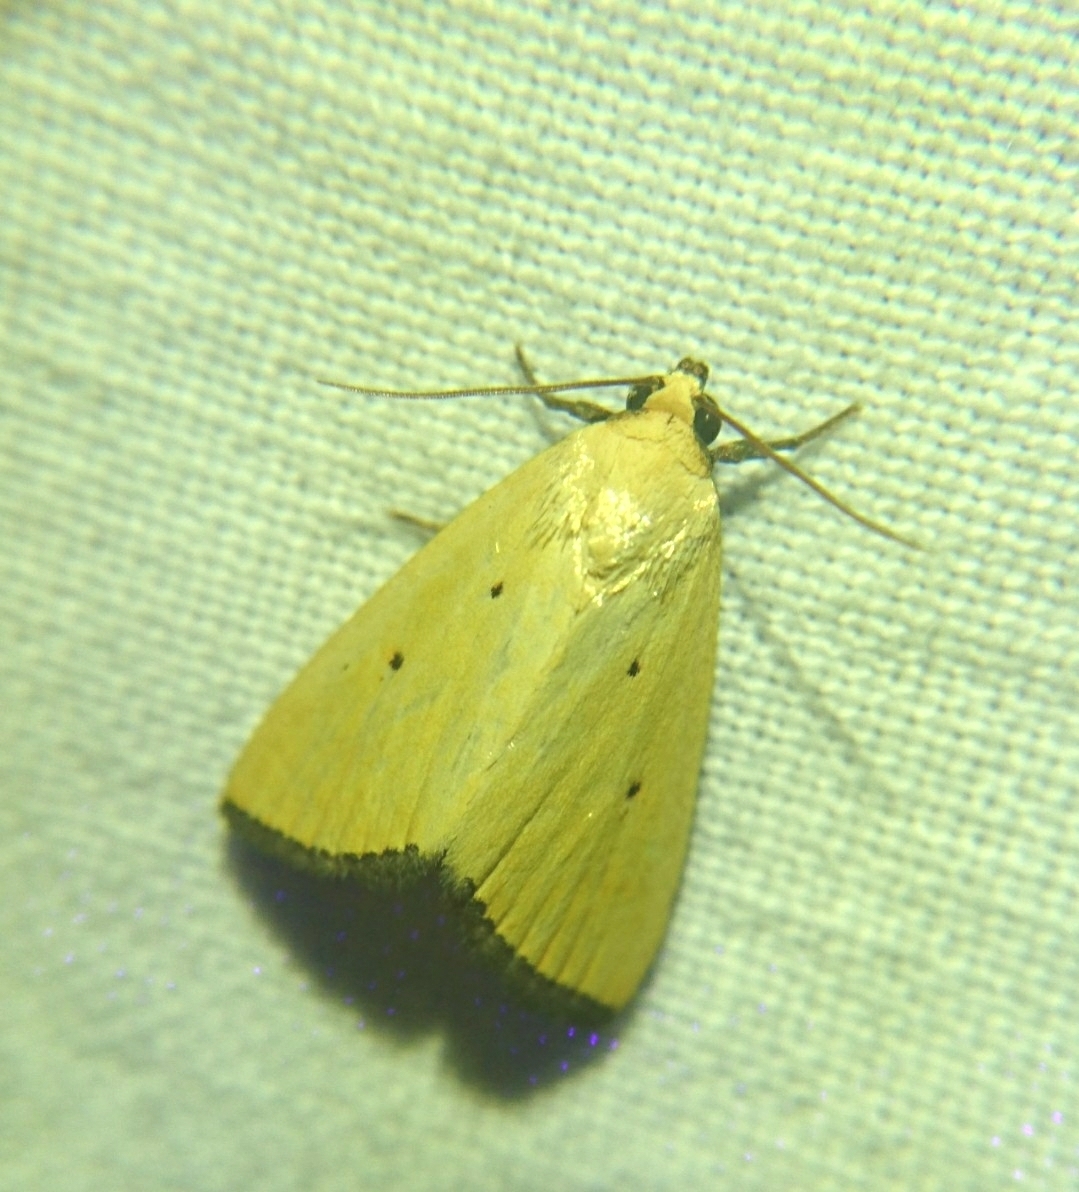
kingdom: Animalia
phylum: Arthropoda
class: Insecta
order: Lepidoptera
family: Noctuidae
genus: Marimatha
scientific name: Marimatha nigrofimbria
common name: Black-bordered lemon moth
